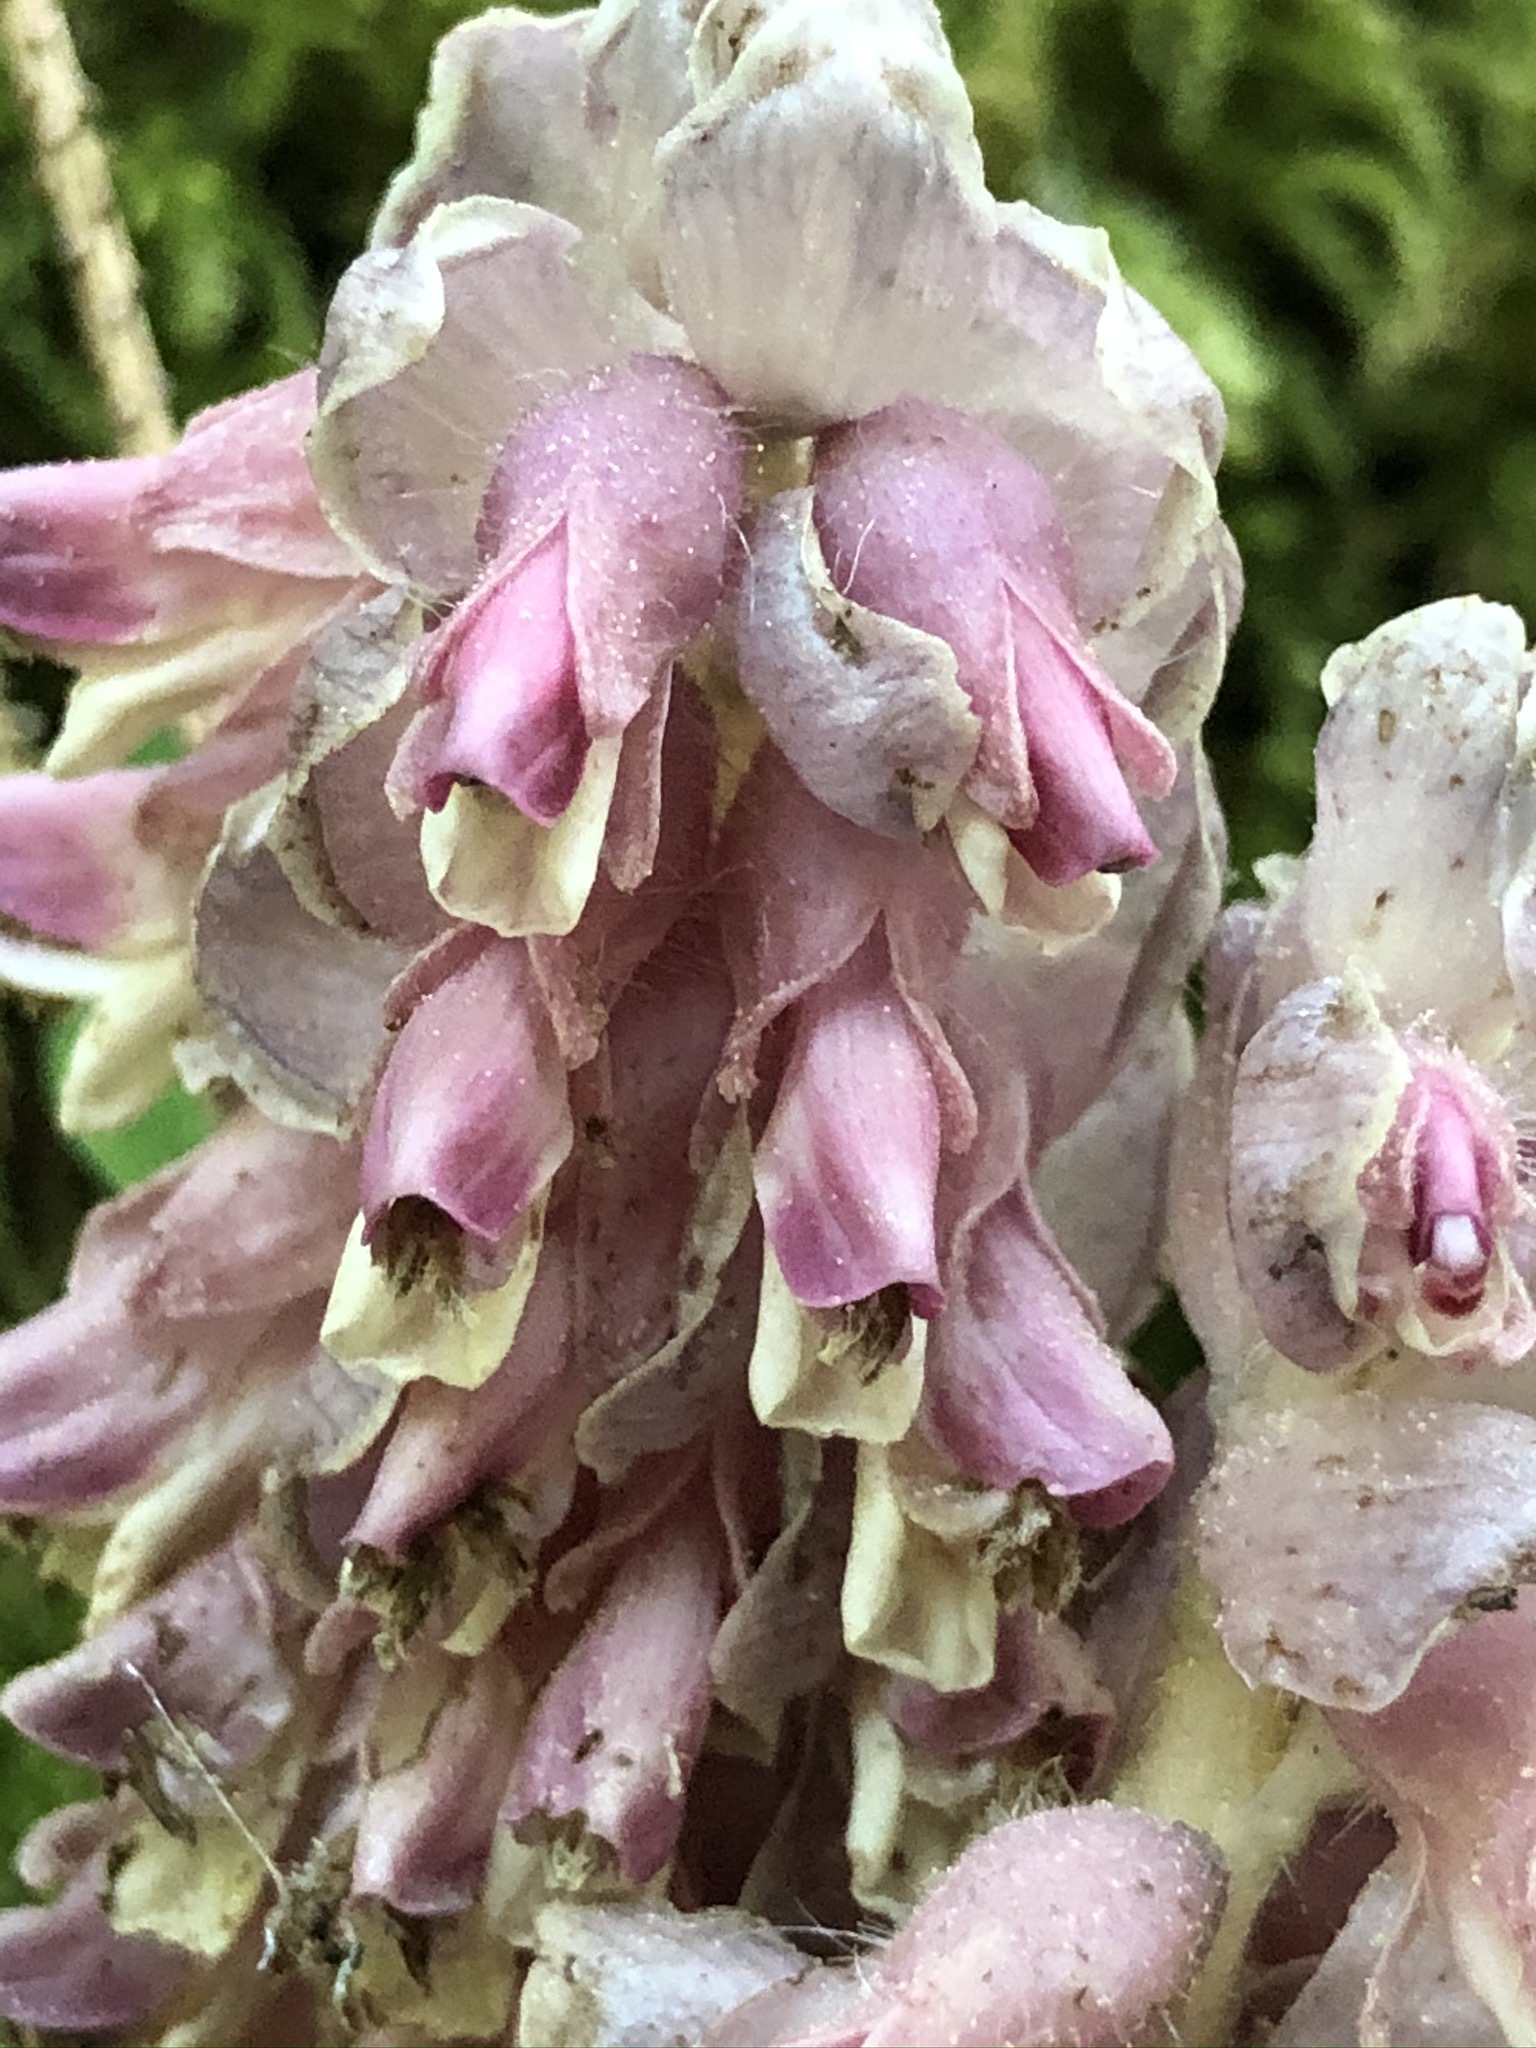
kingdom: Plantae
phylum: Tracheophyta
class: Magnoliopsida
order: Lamiales
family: Orobanchaceae
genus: Lathraea
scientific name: Lathraea squamaria
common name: Toothwort
